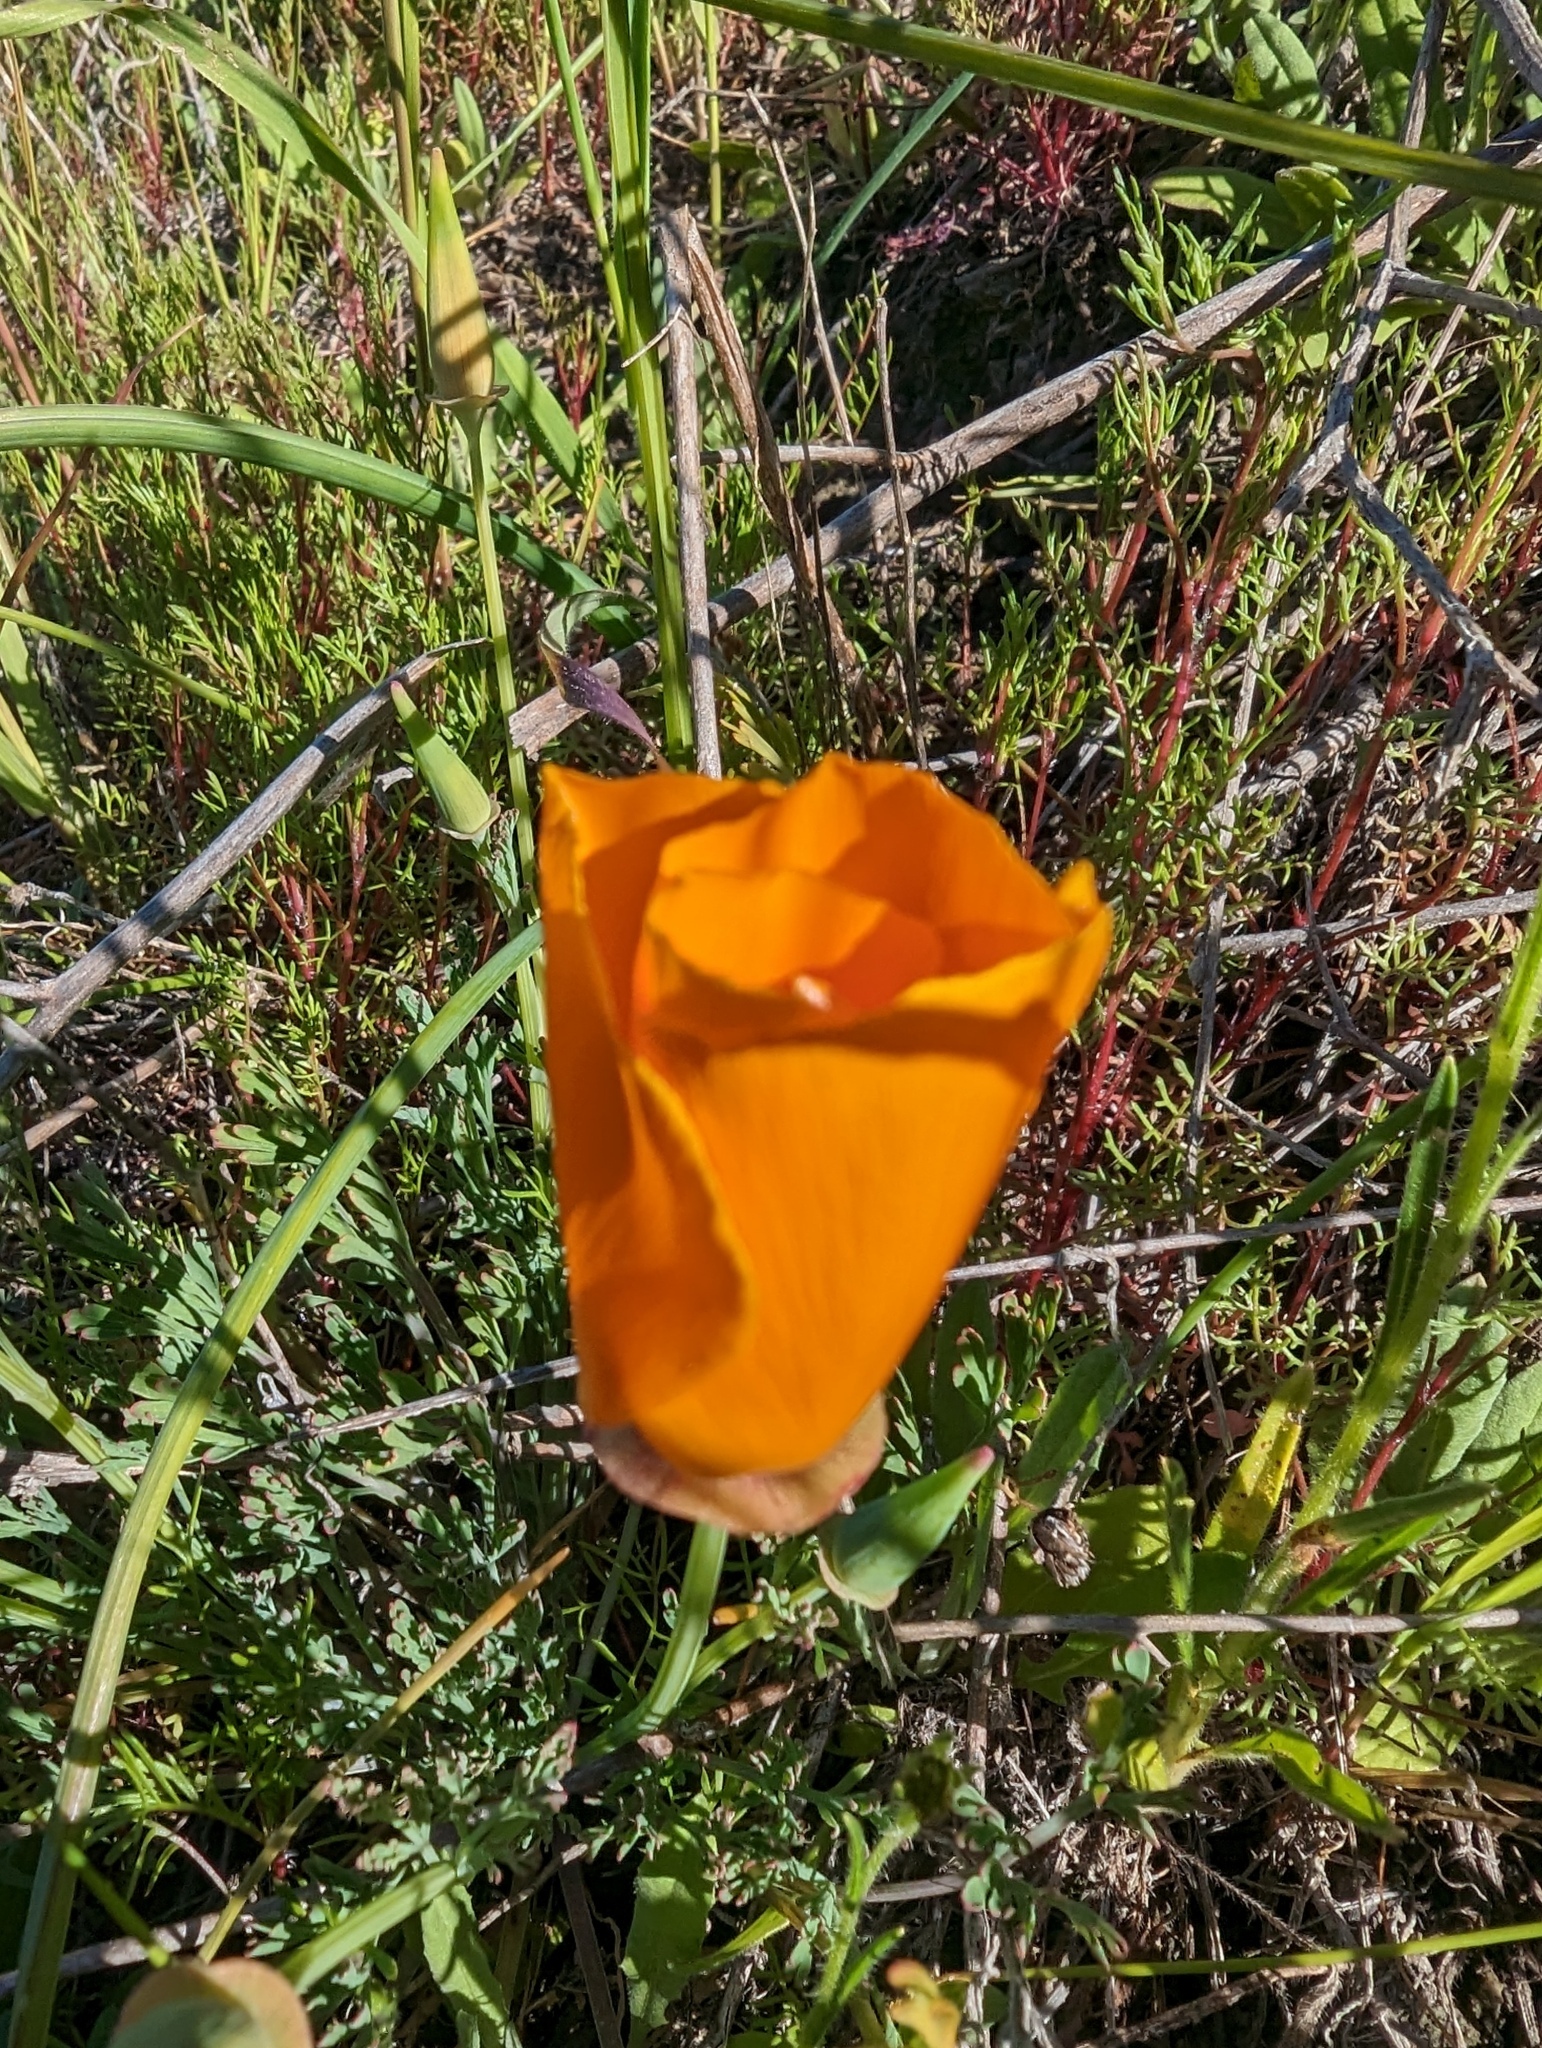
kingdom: Plantae
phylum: Tracheophyta
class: Magnoliopsida
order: Ranunculales
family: Papaveraceae
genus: Eschscholzia
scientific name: Eschscholzia californica
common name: California poppy
